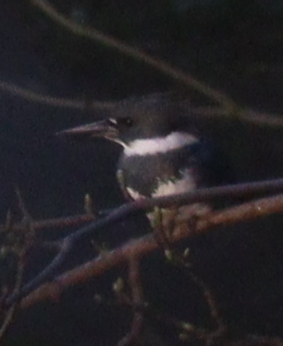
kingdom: Animalia
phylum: Chordata
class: Aves
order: Coraciiformes
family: Alcedinidae
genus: Megaceryle
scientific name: Megaceryle alcyon
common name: Belted kingfisher
